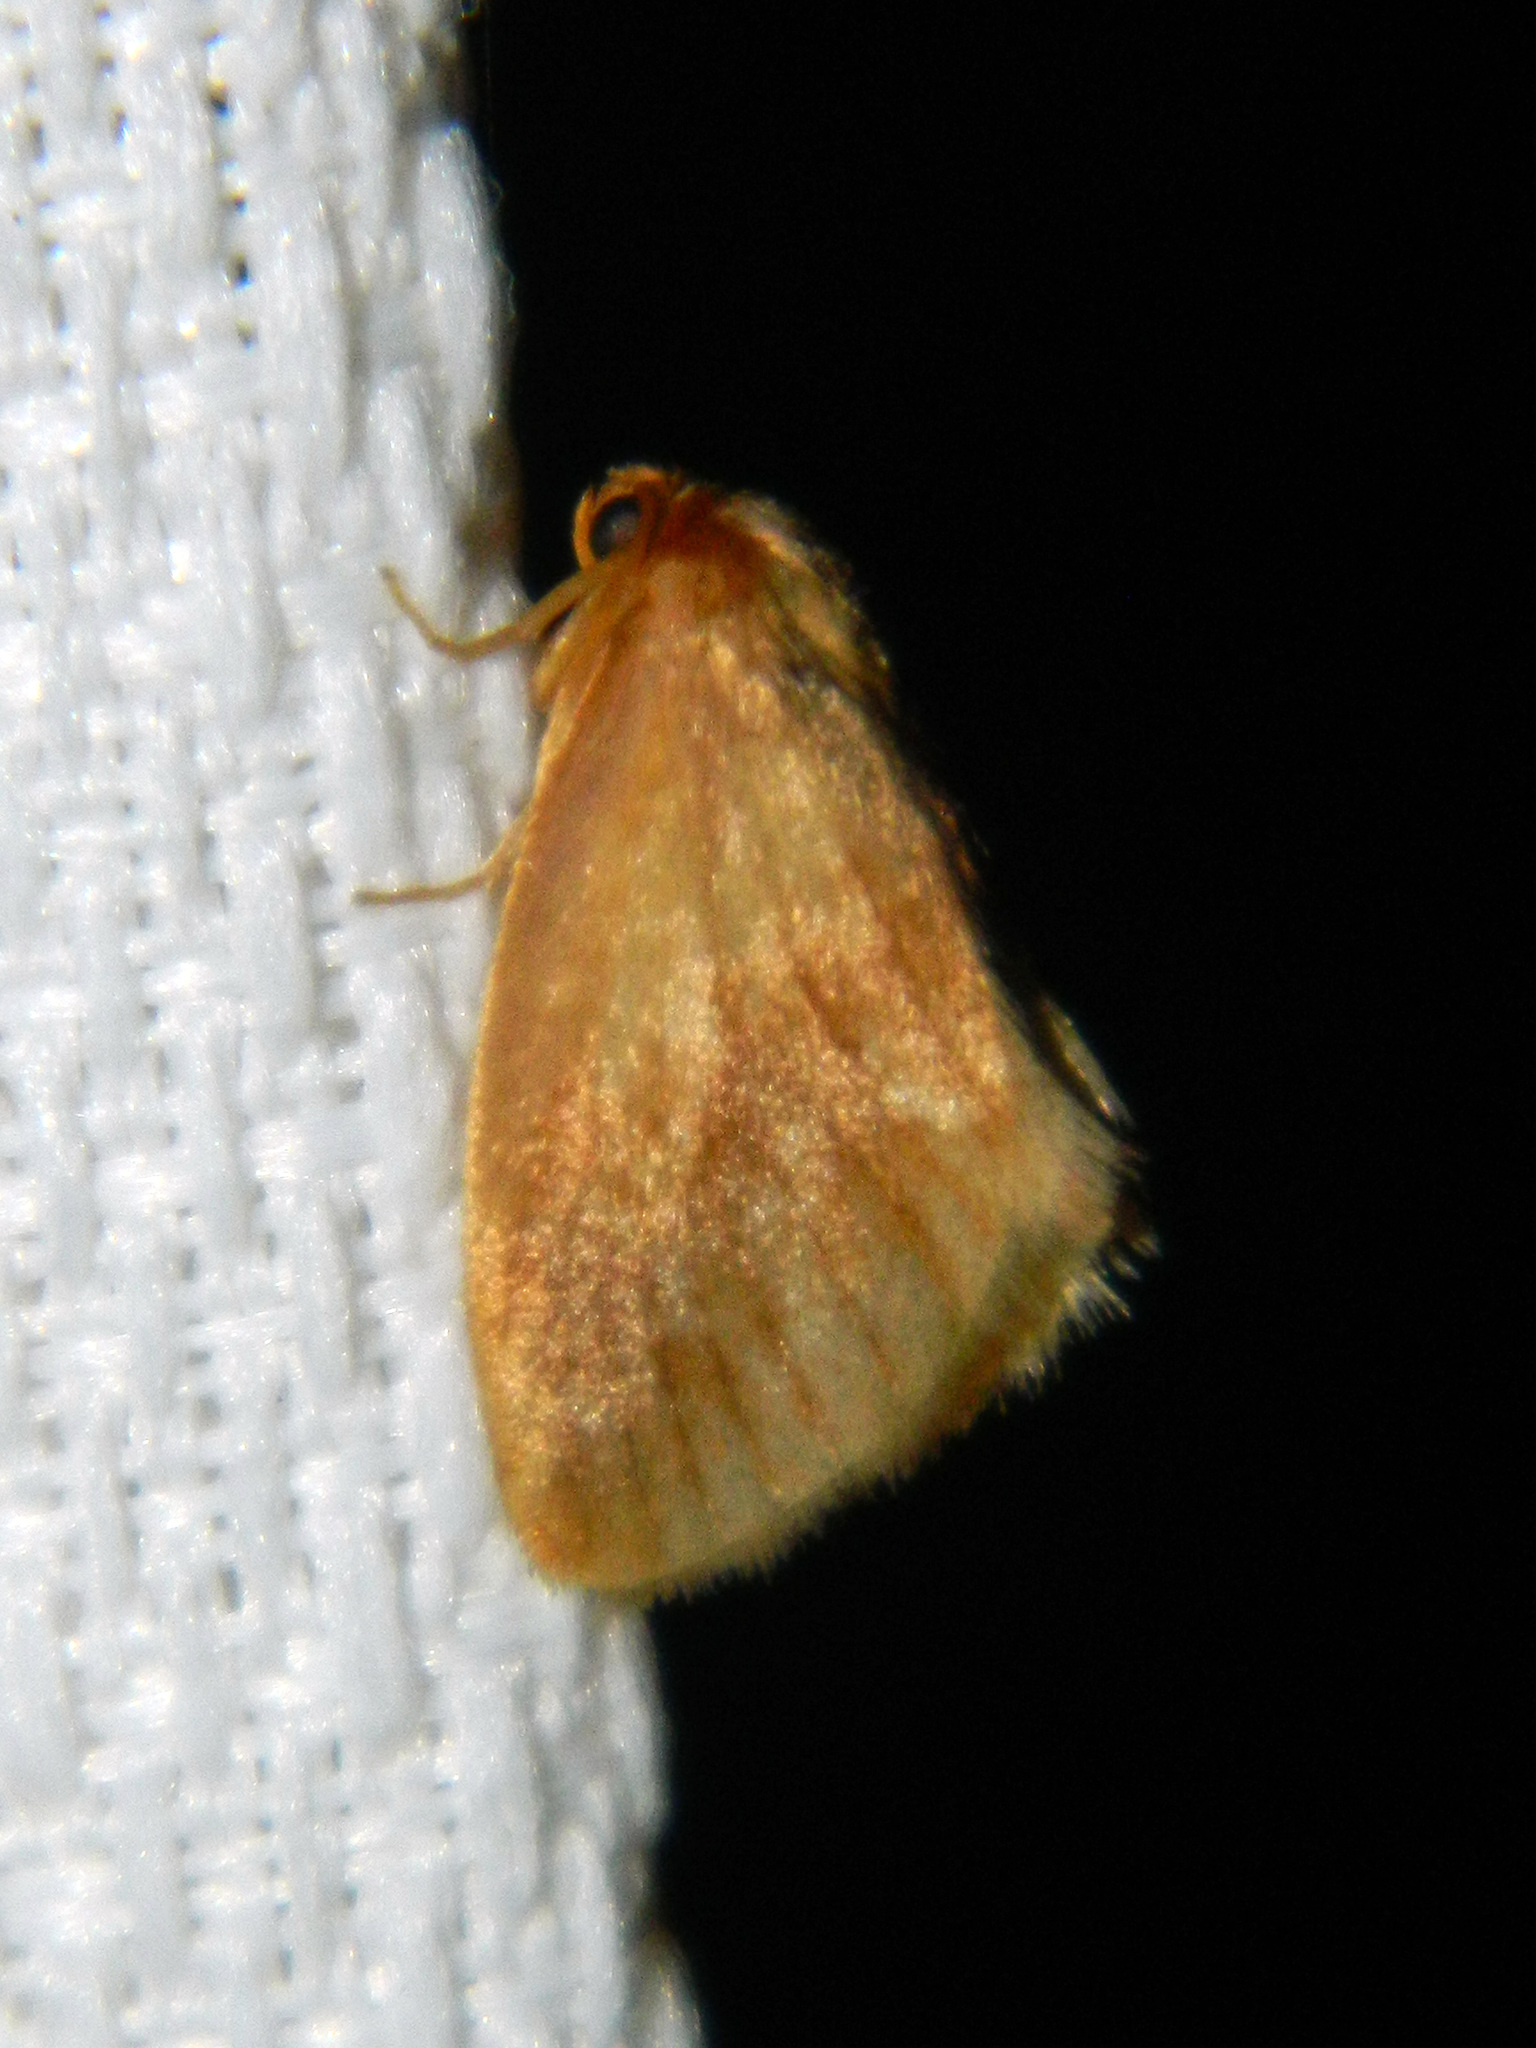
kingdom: Animalia
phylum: Arthropoda
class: Insecta
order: Lepidoptera
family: Limacodidae
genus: Tortricidia
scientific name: Tortricidia testacea
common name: Early button slug moth
